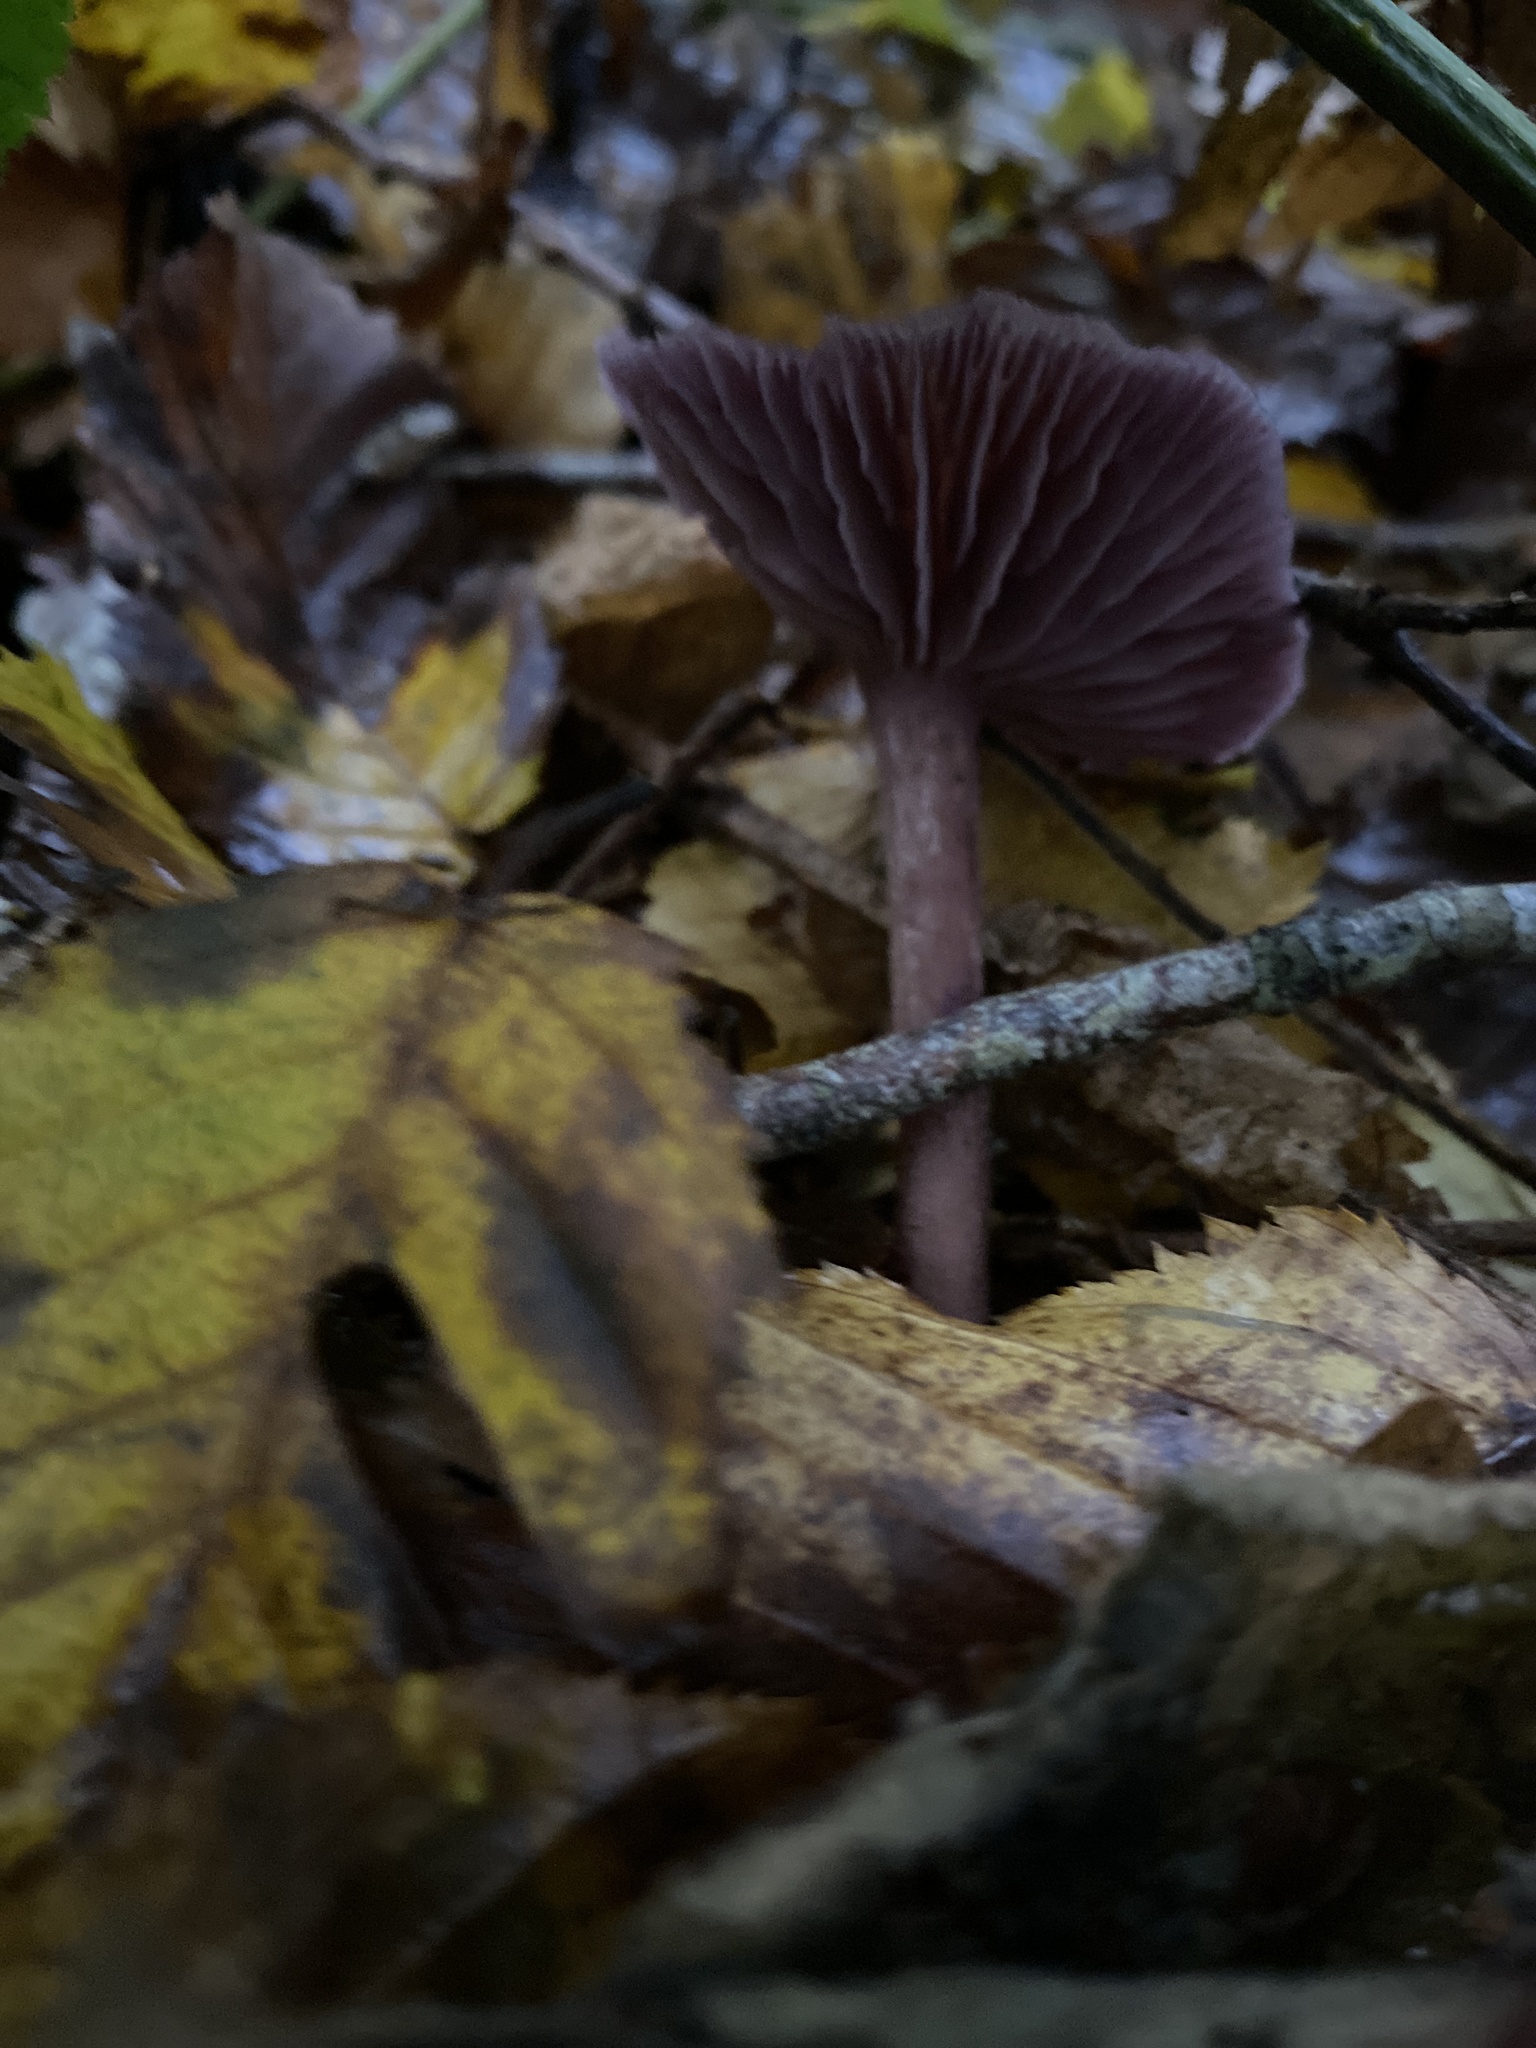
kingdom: Fungi
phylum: Basidiomycota
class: Agaricomycetes
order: Agaricales
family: Hydnangiaceae
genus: Laccaria
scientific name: Laccaria amethystina
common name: Amethyst deceiver
